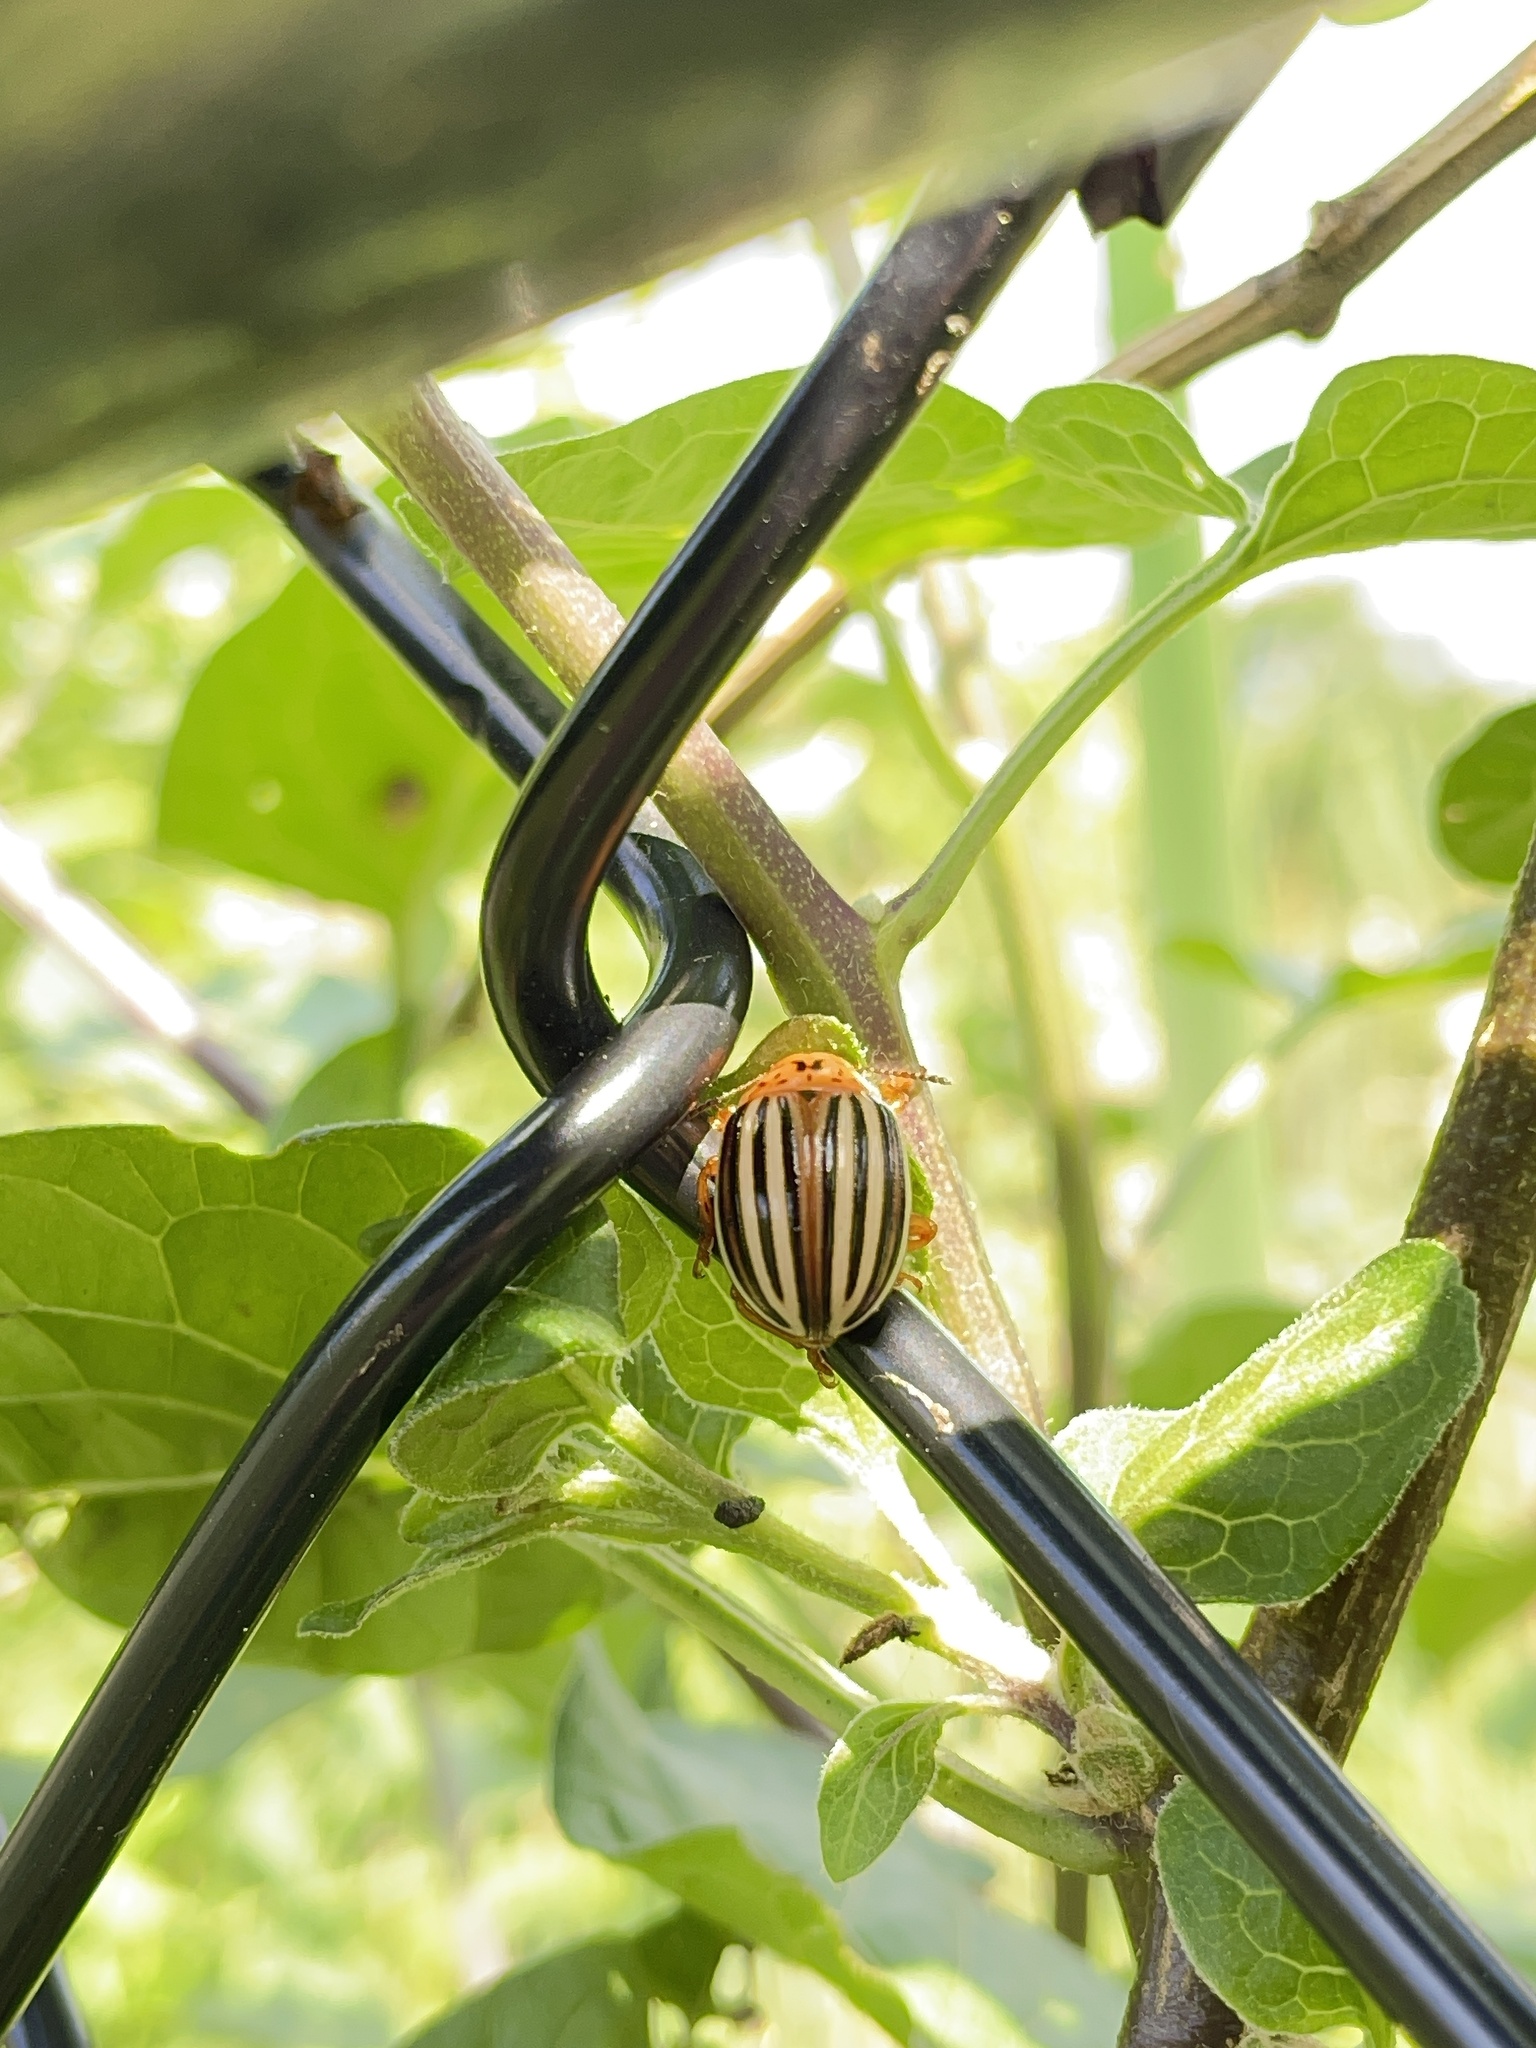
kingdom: Animalia
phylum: Arthropoda
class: Insecta
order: Coleoptera
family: Chrysomelidae
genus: Leptinotarsa
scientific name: Leptinotarsa juncta
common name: False potato beetle
